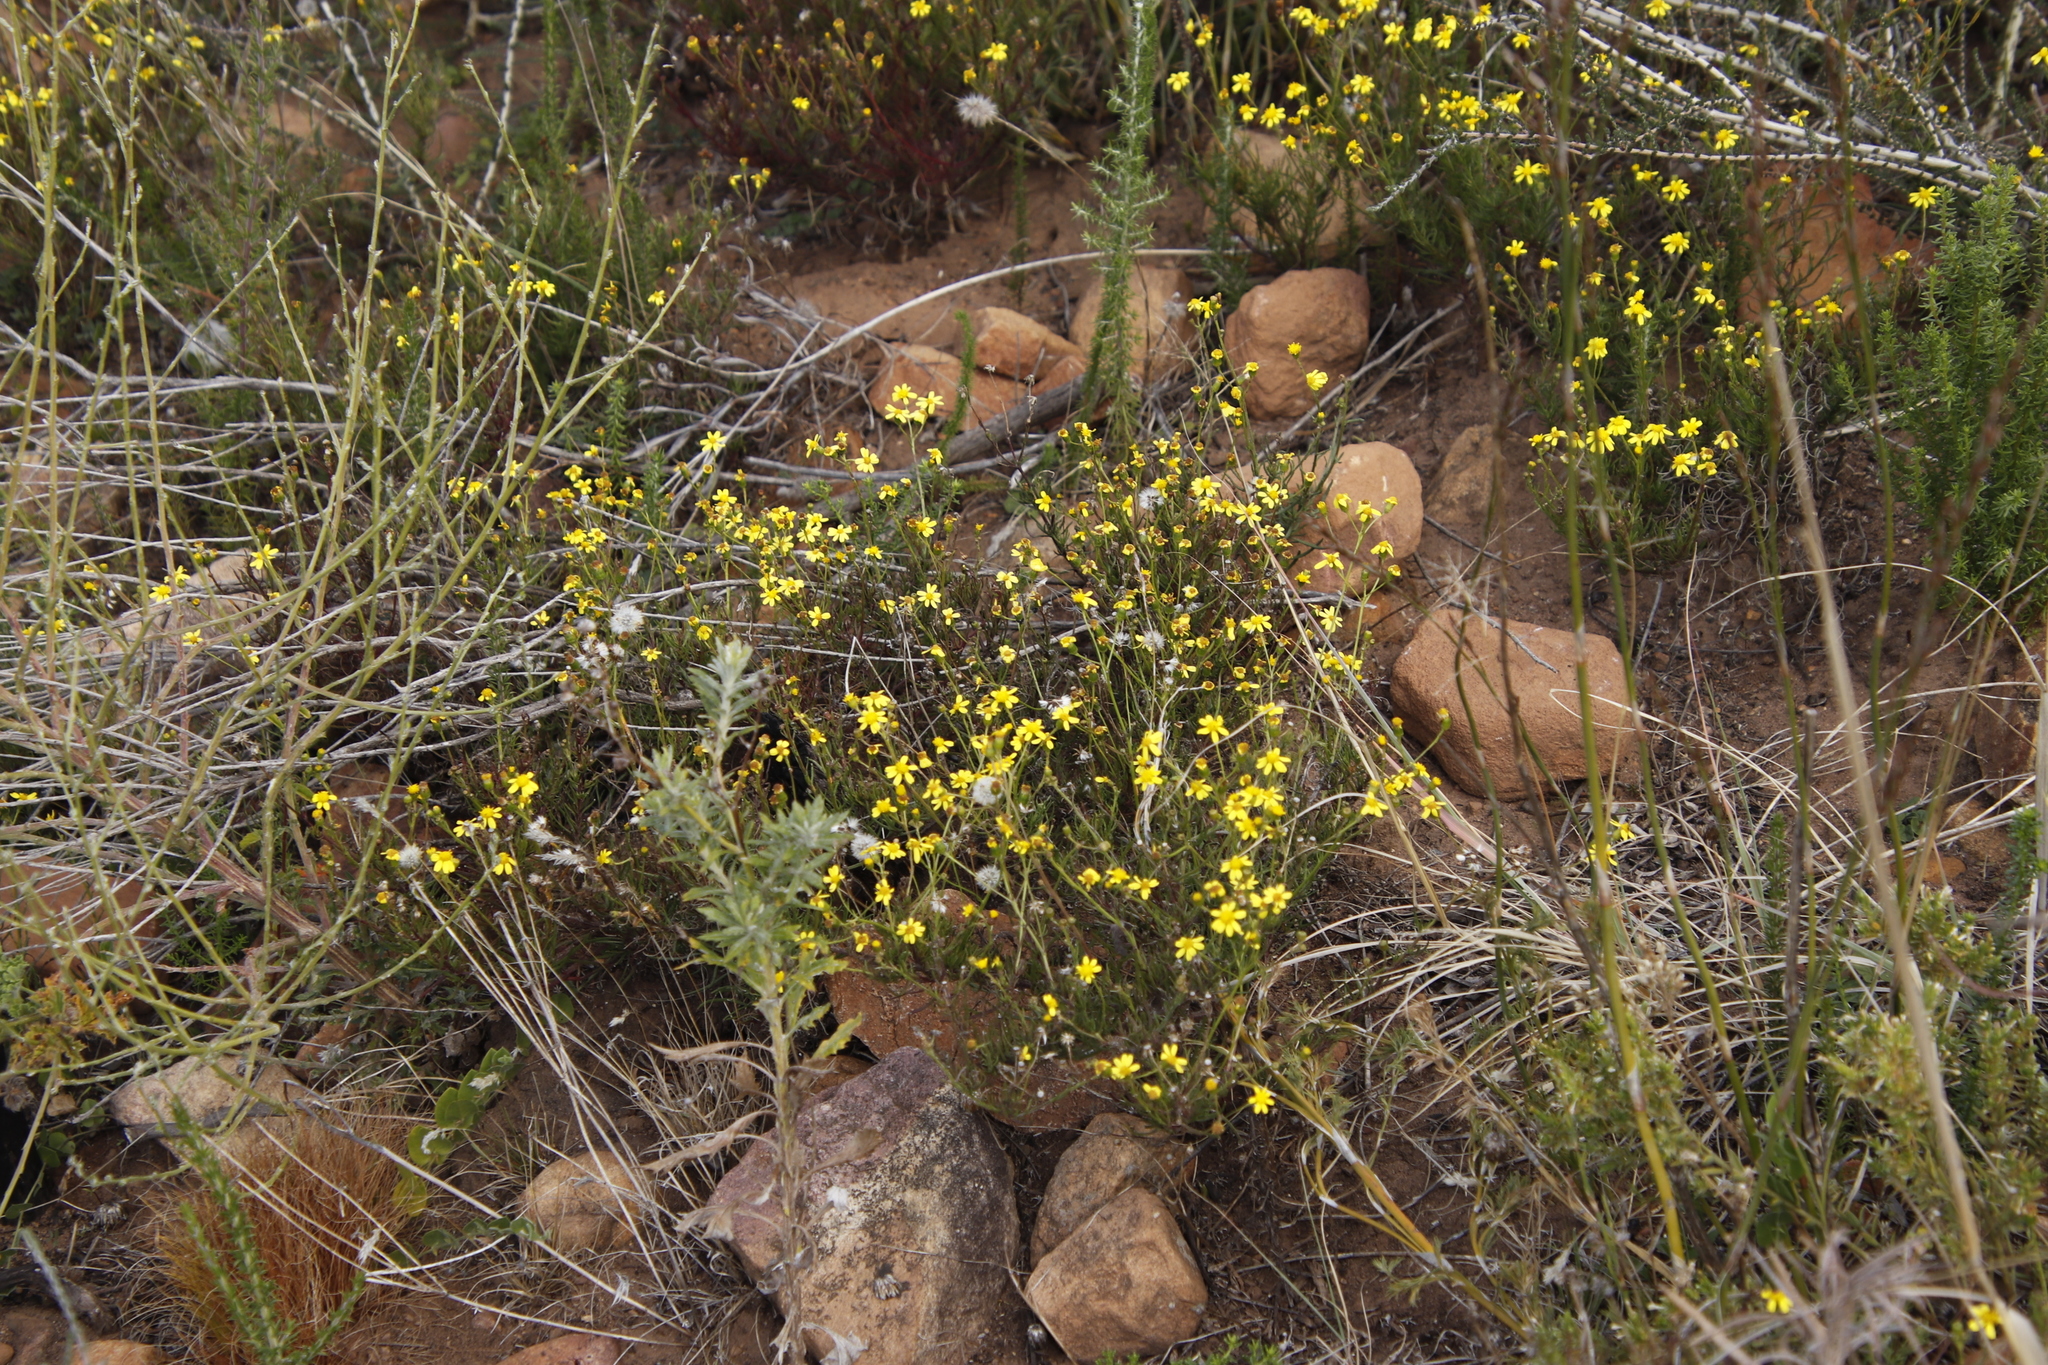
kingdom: Plantae
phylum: Tracheophyta
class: Magnoliopsida
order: Asterales
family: Asteraceae
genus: Senecio
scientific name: Senecio burchellii
